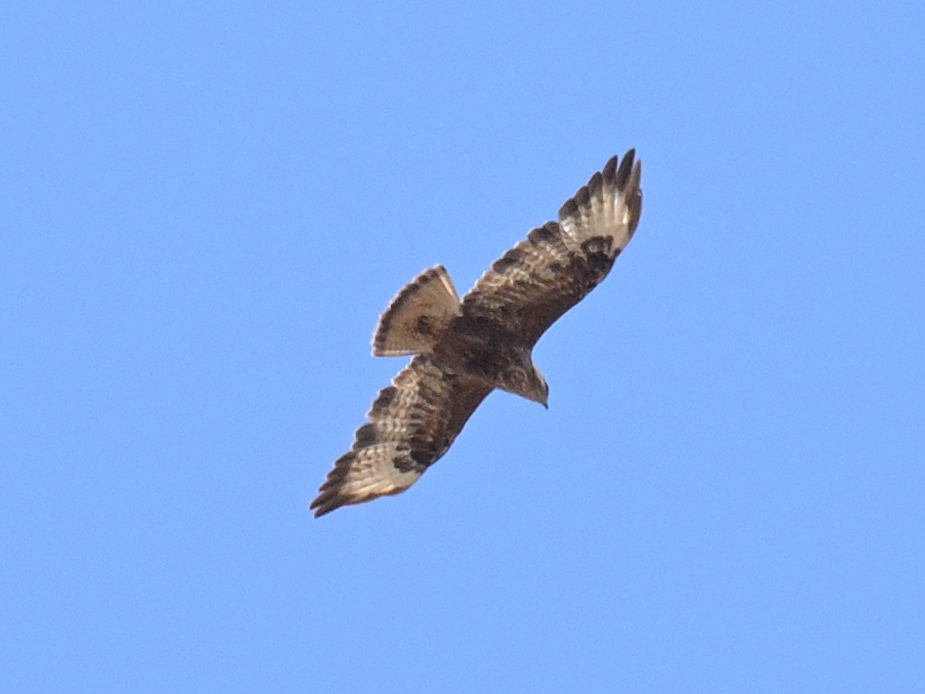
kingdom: Animalia
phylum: Chordata
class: Aves
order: Accipitriformes
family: Accipitridae
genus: Buteo
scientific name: Buteo buteo
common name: Common buzzard
